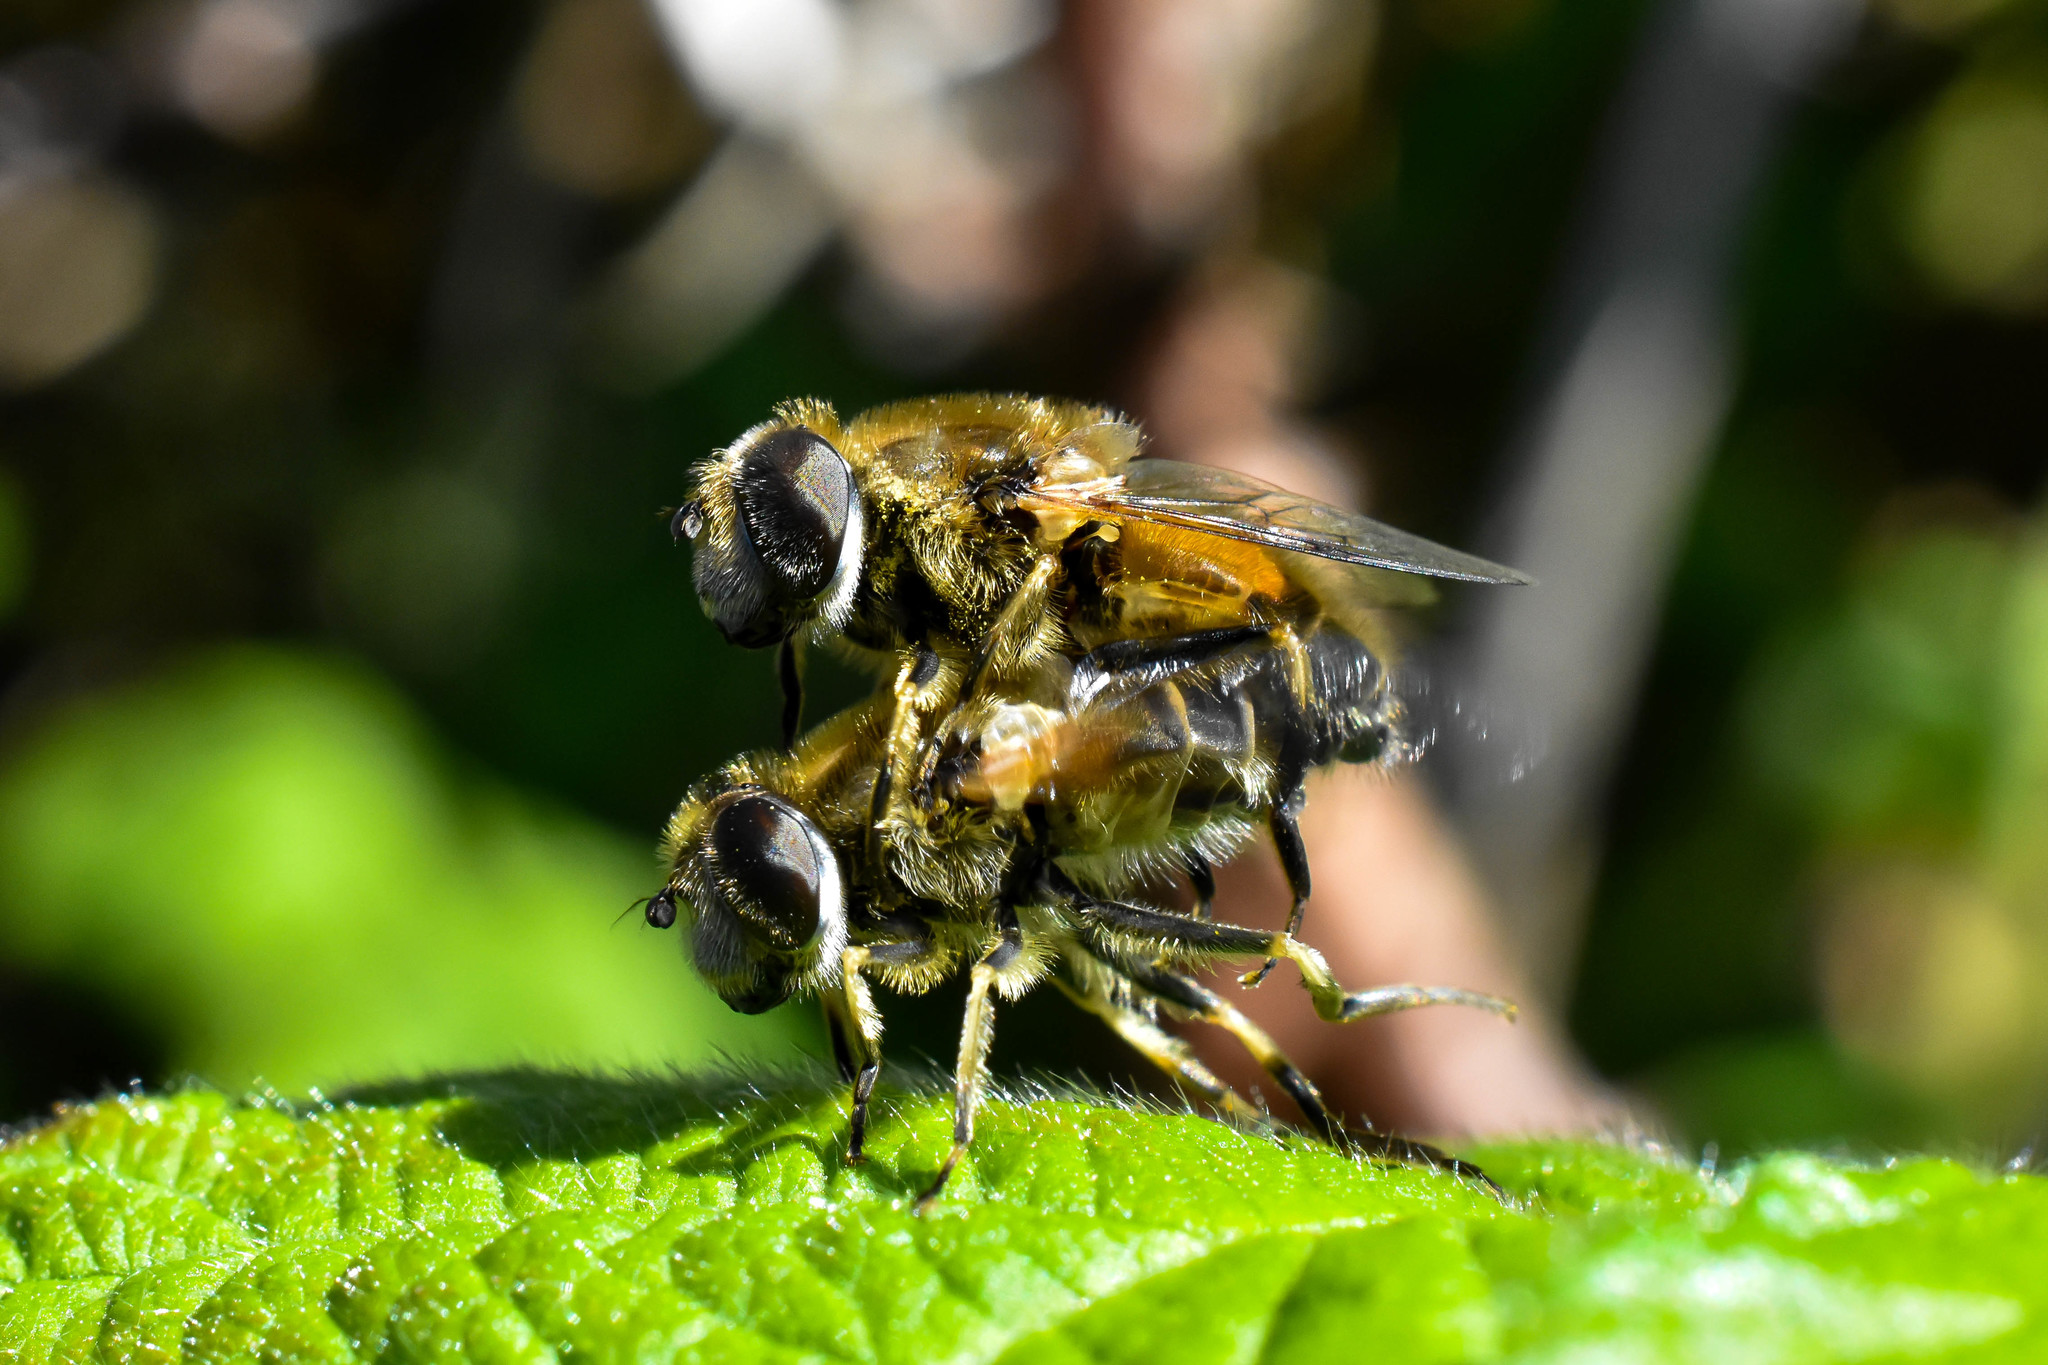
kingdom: Animalia
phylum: Arthropoda
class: Insecta
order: Diptera
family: Syrphidae
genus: Eristalis
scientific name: Eristalis arbustorum
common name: Hover fly
